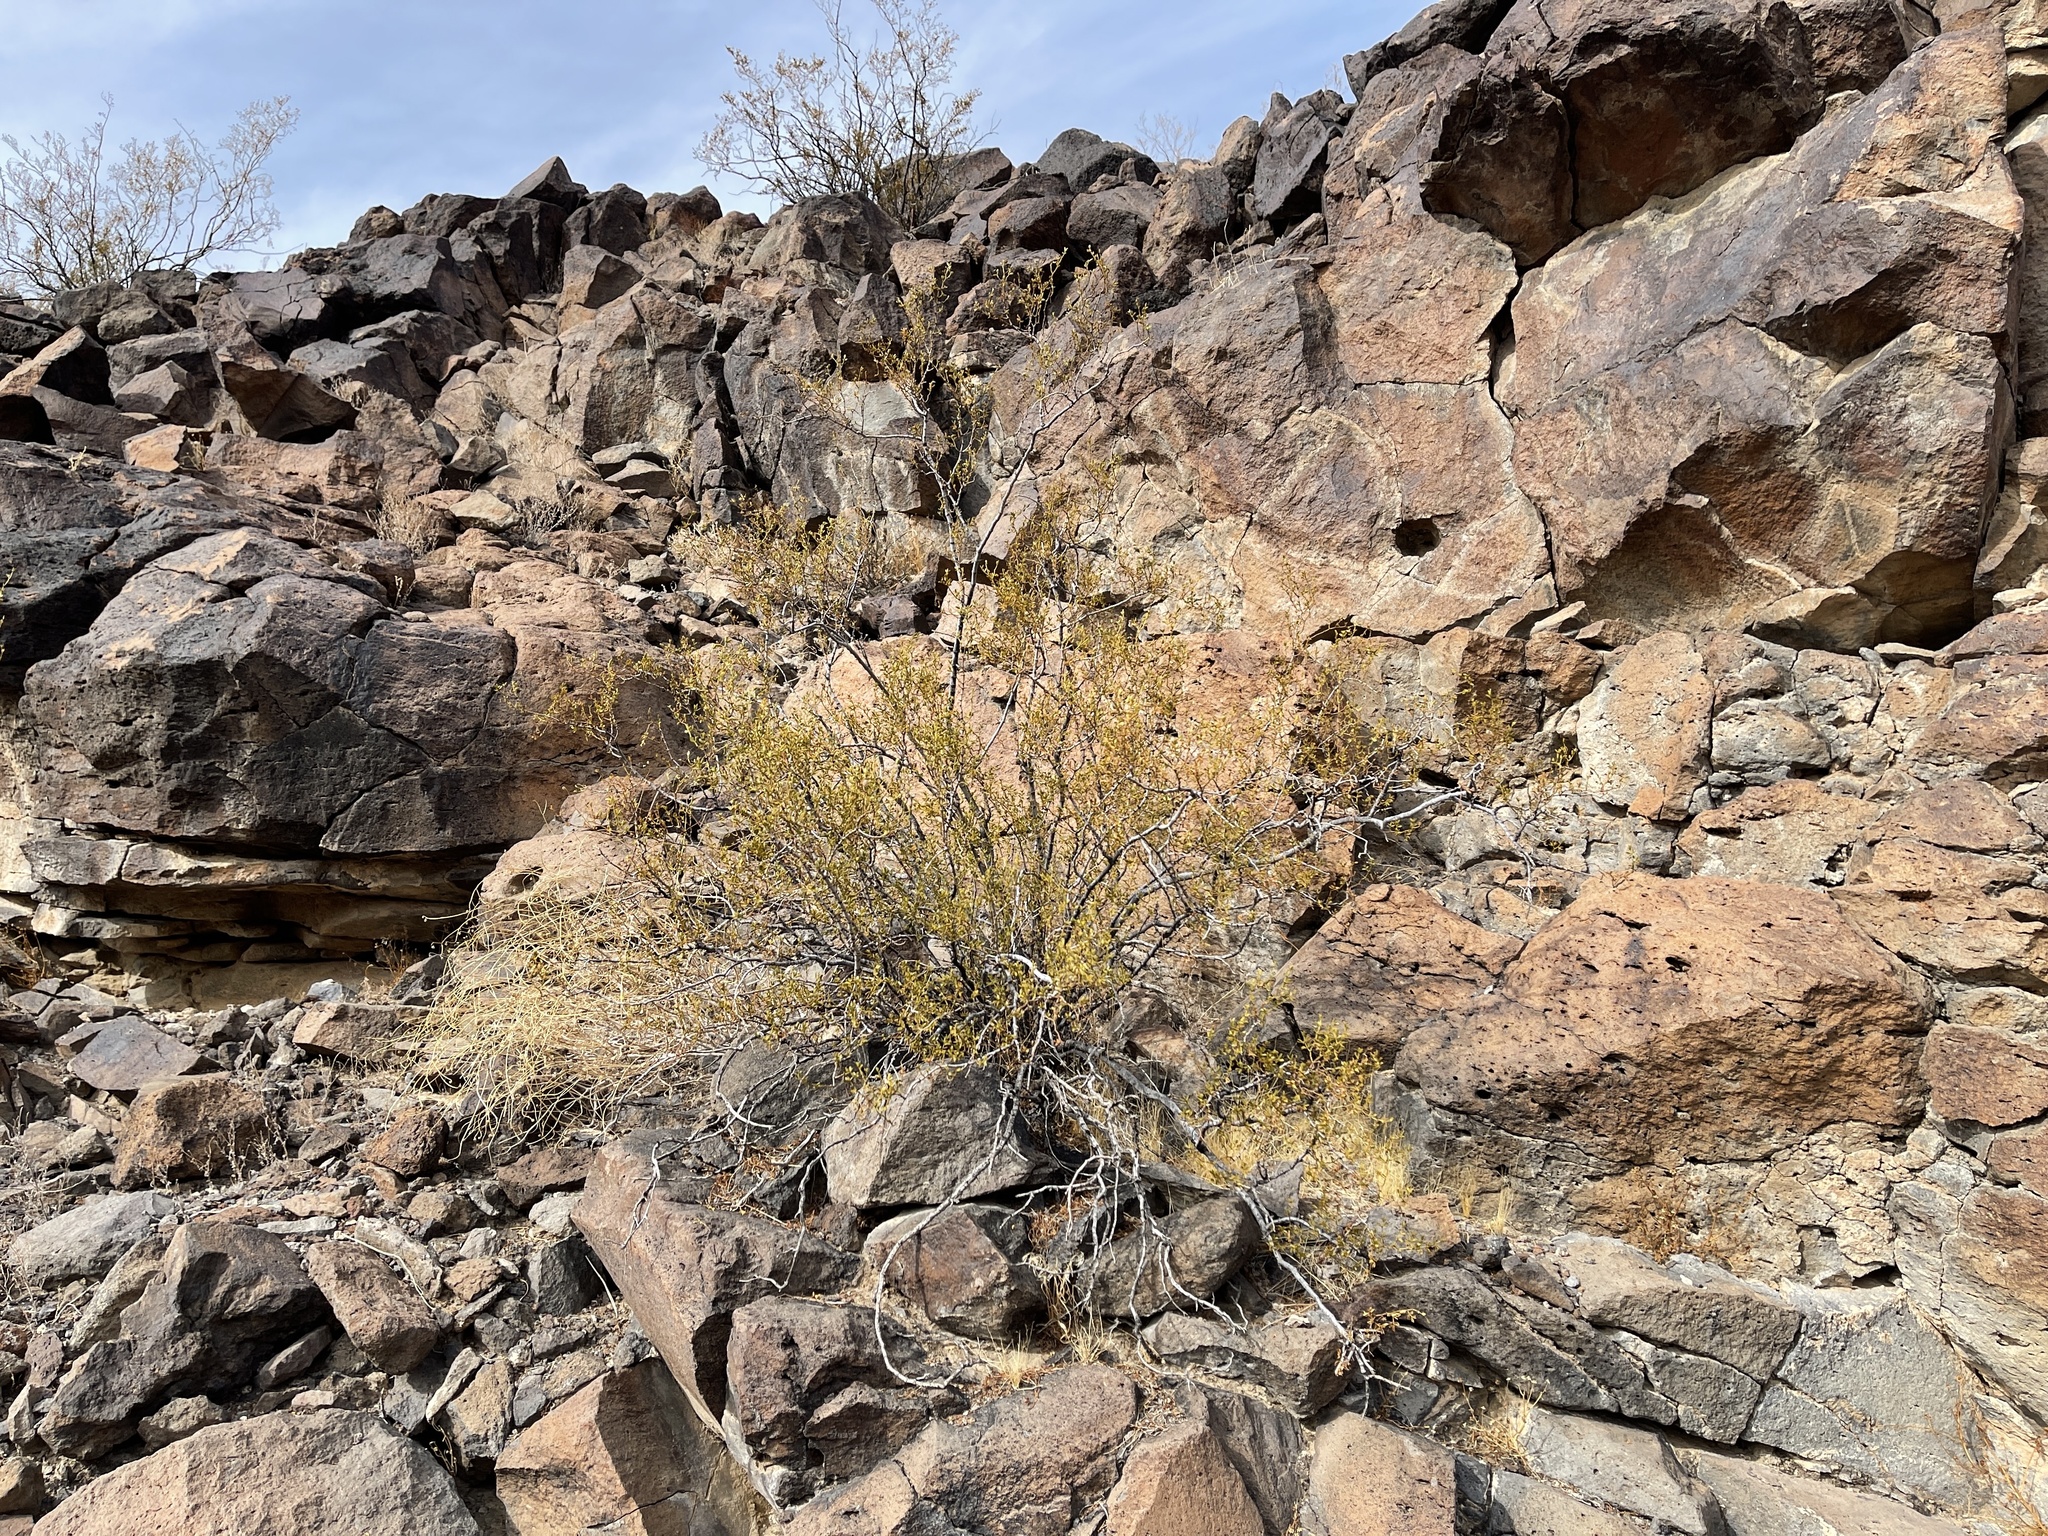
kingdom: Plantae
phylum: Tracheophyta
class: Magnoliopsida
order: Zygophyllales
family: Zygophyllaceae
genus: Larrea
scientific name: Larrea tridentata
